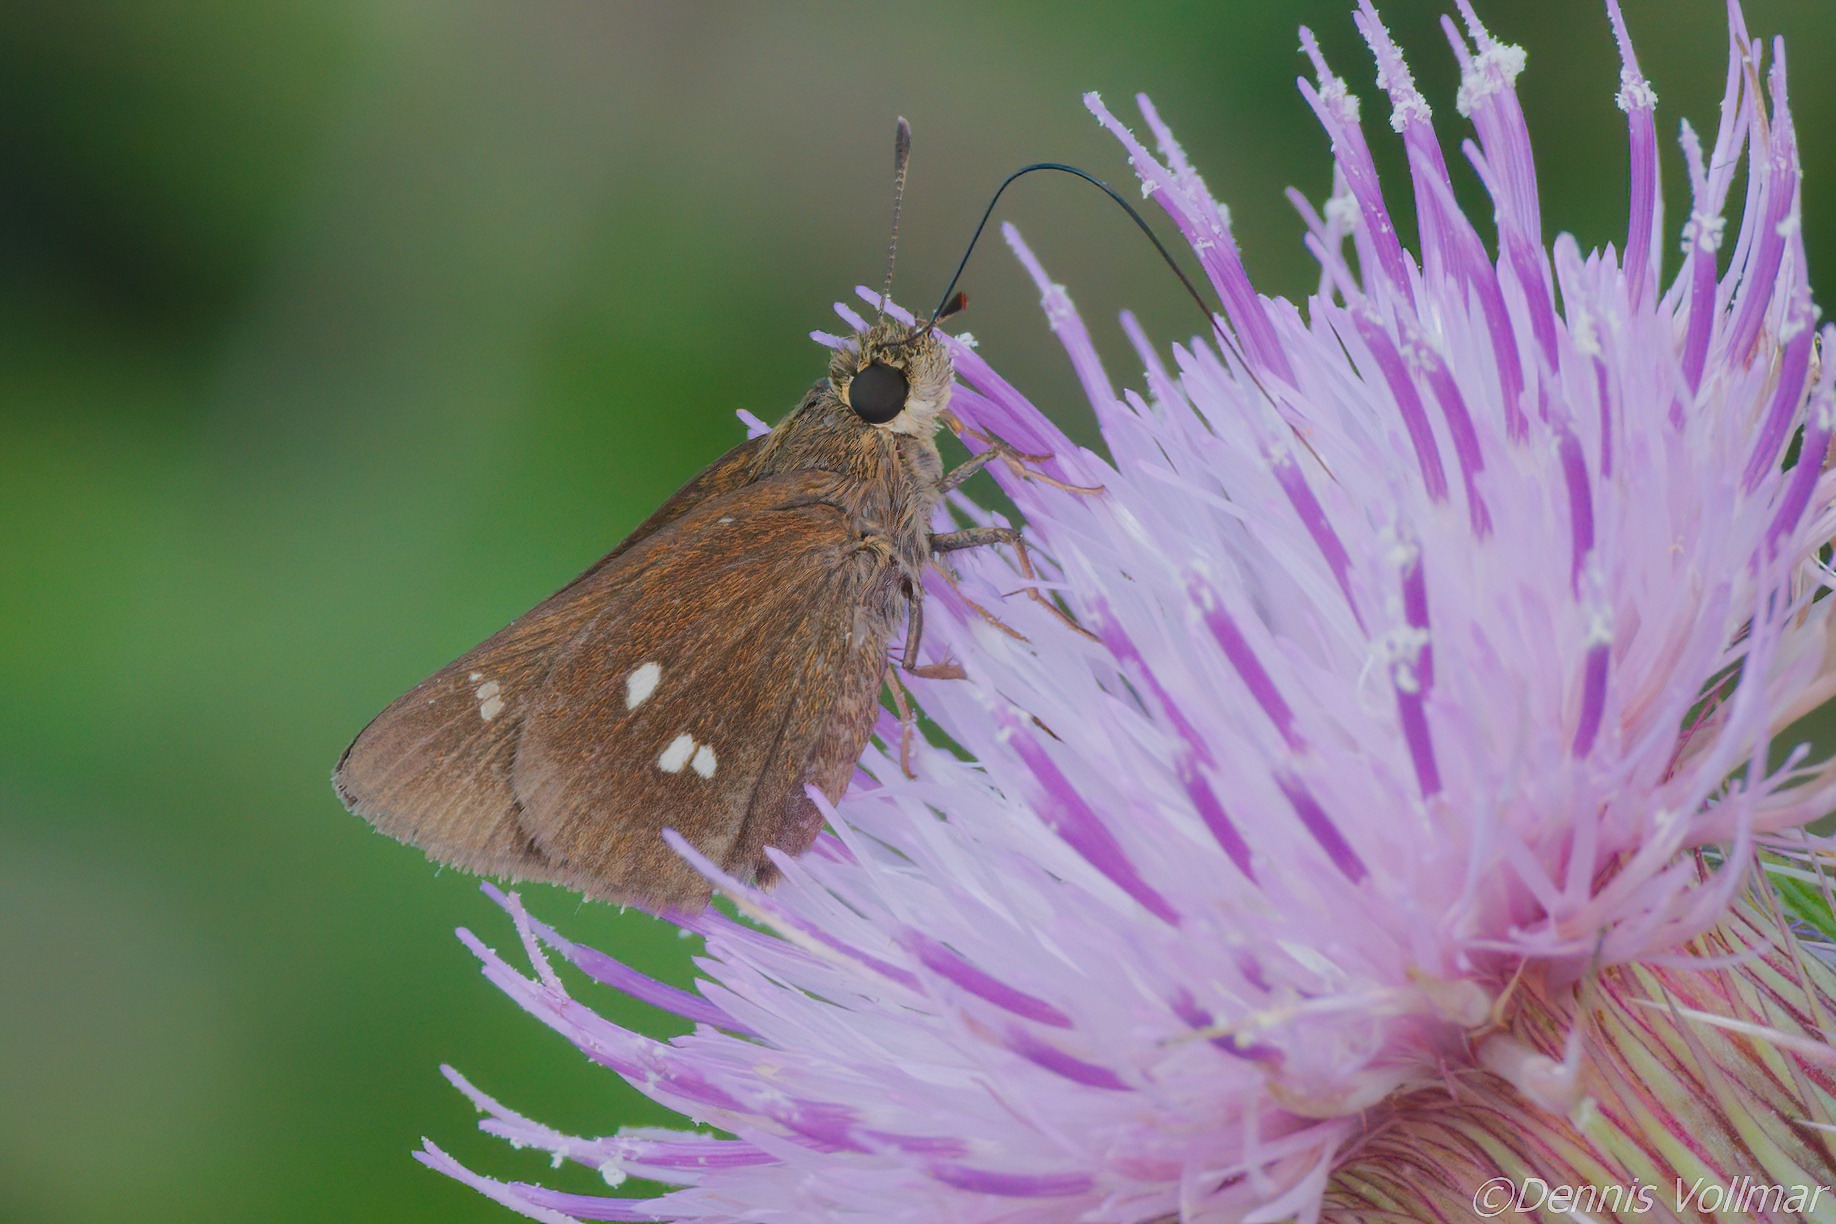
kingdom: Animalia
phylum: Arthropoda
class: Insecta
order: Lepidoptera
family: Hesperiidae
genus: Oligoria
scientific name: Oligoria maculata
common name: Twin-spot skipper
